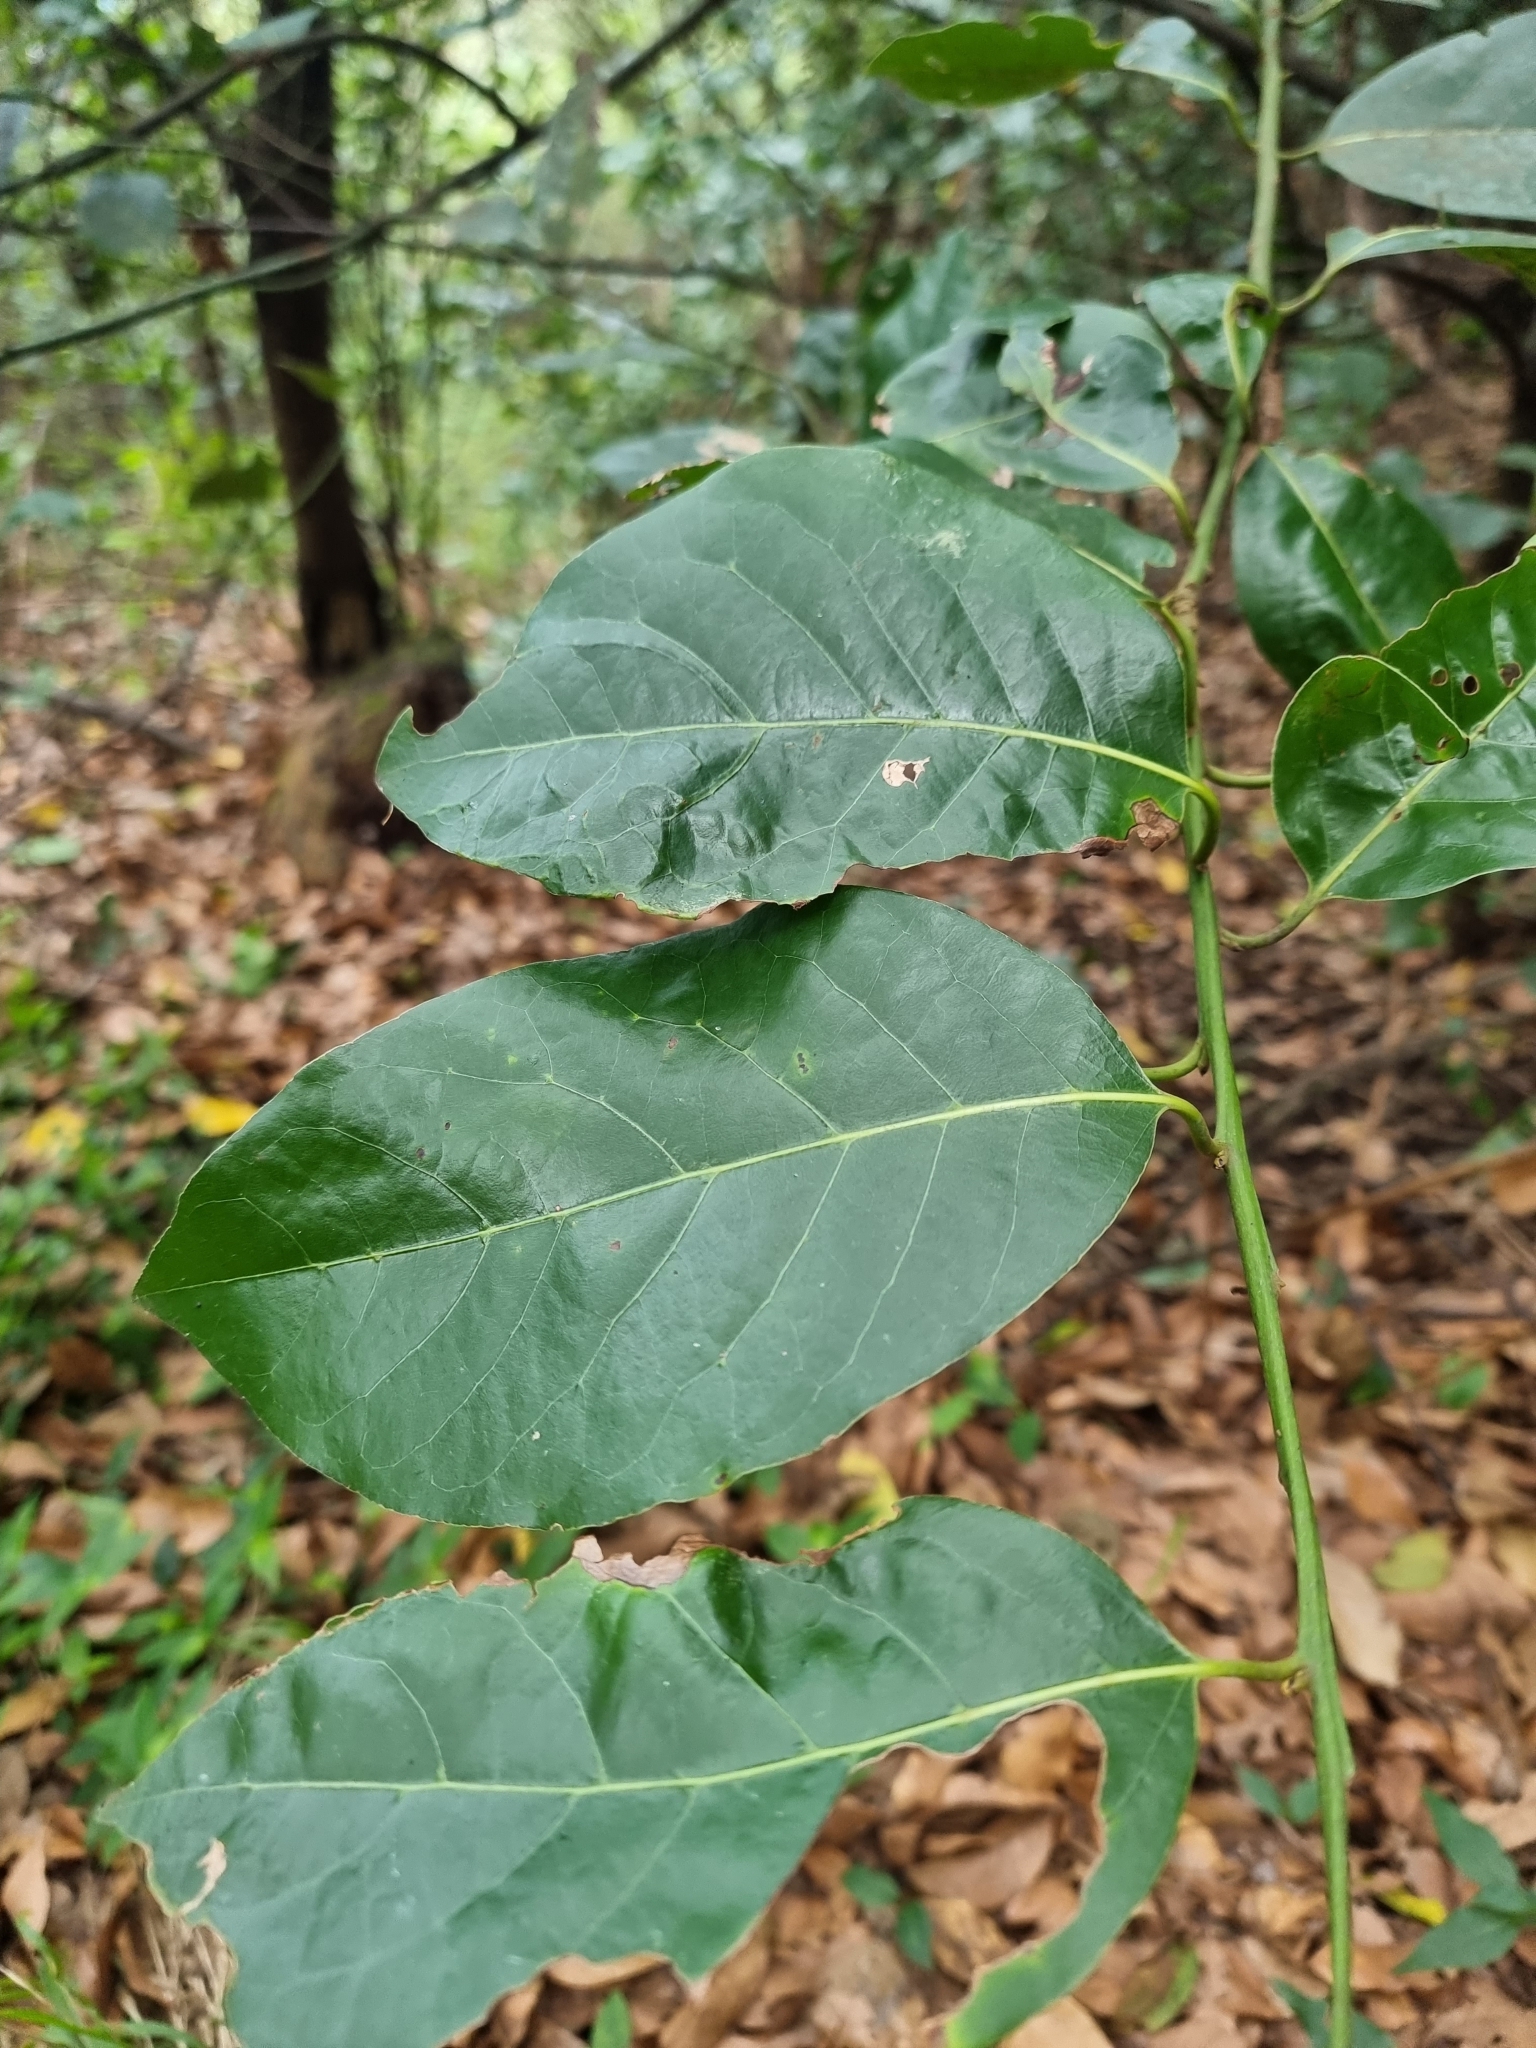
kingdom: Plantae
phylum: Tracheophyta
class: Magnoliopsida
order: Laurales
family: Lauraceae
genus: Laurus
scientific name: Laurus novocanariensis
